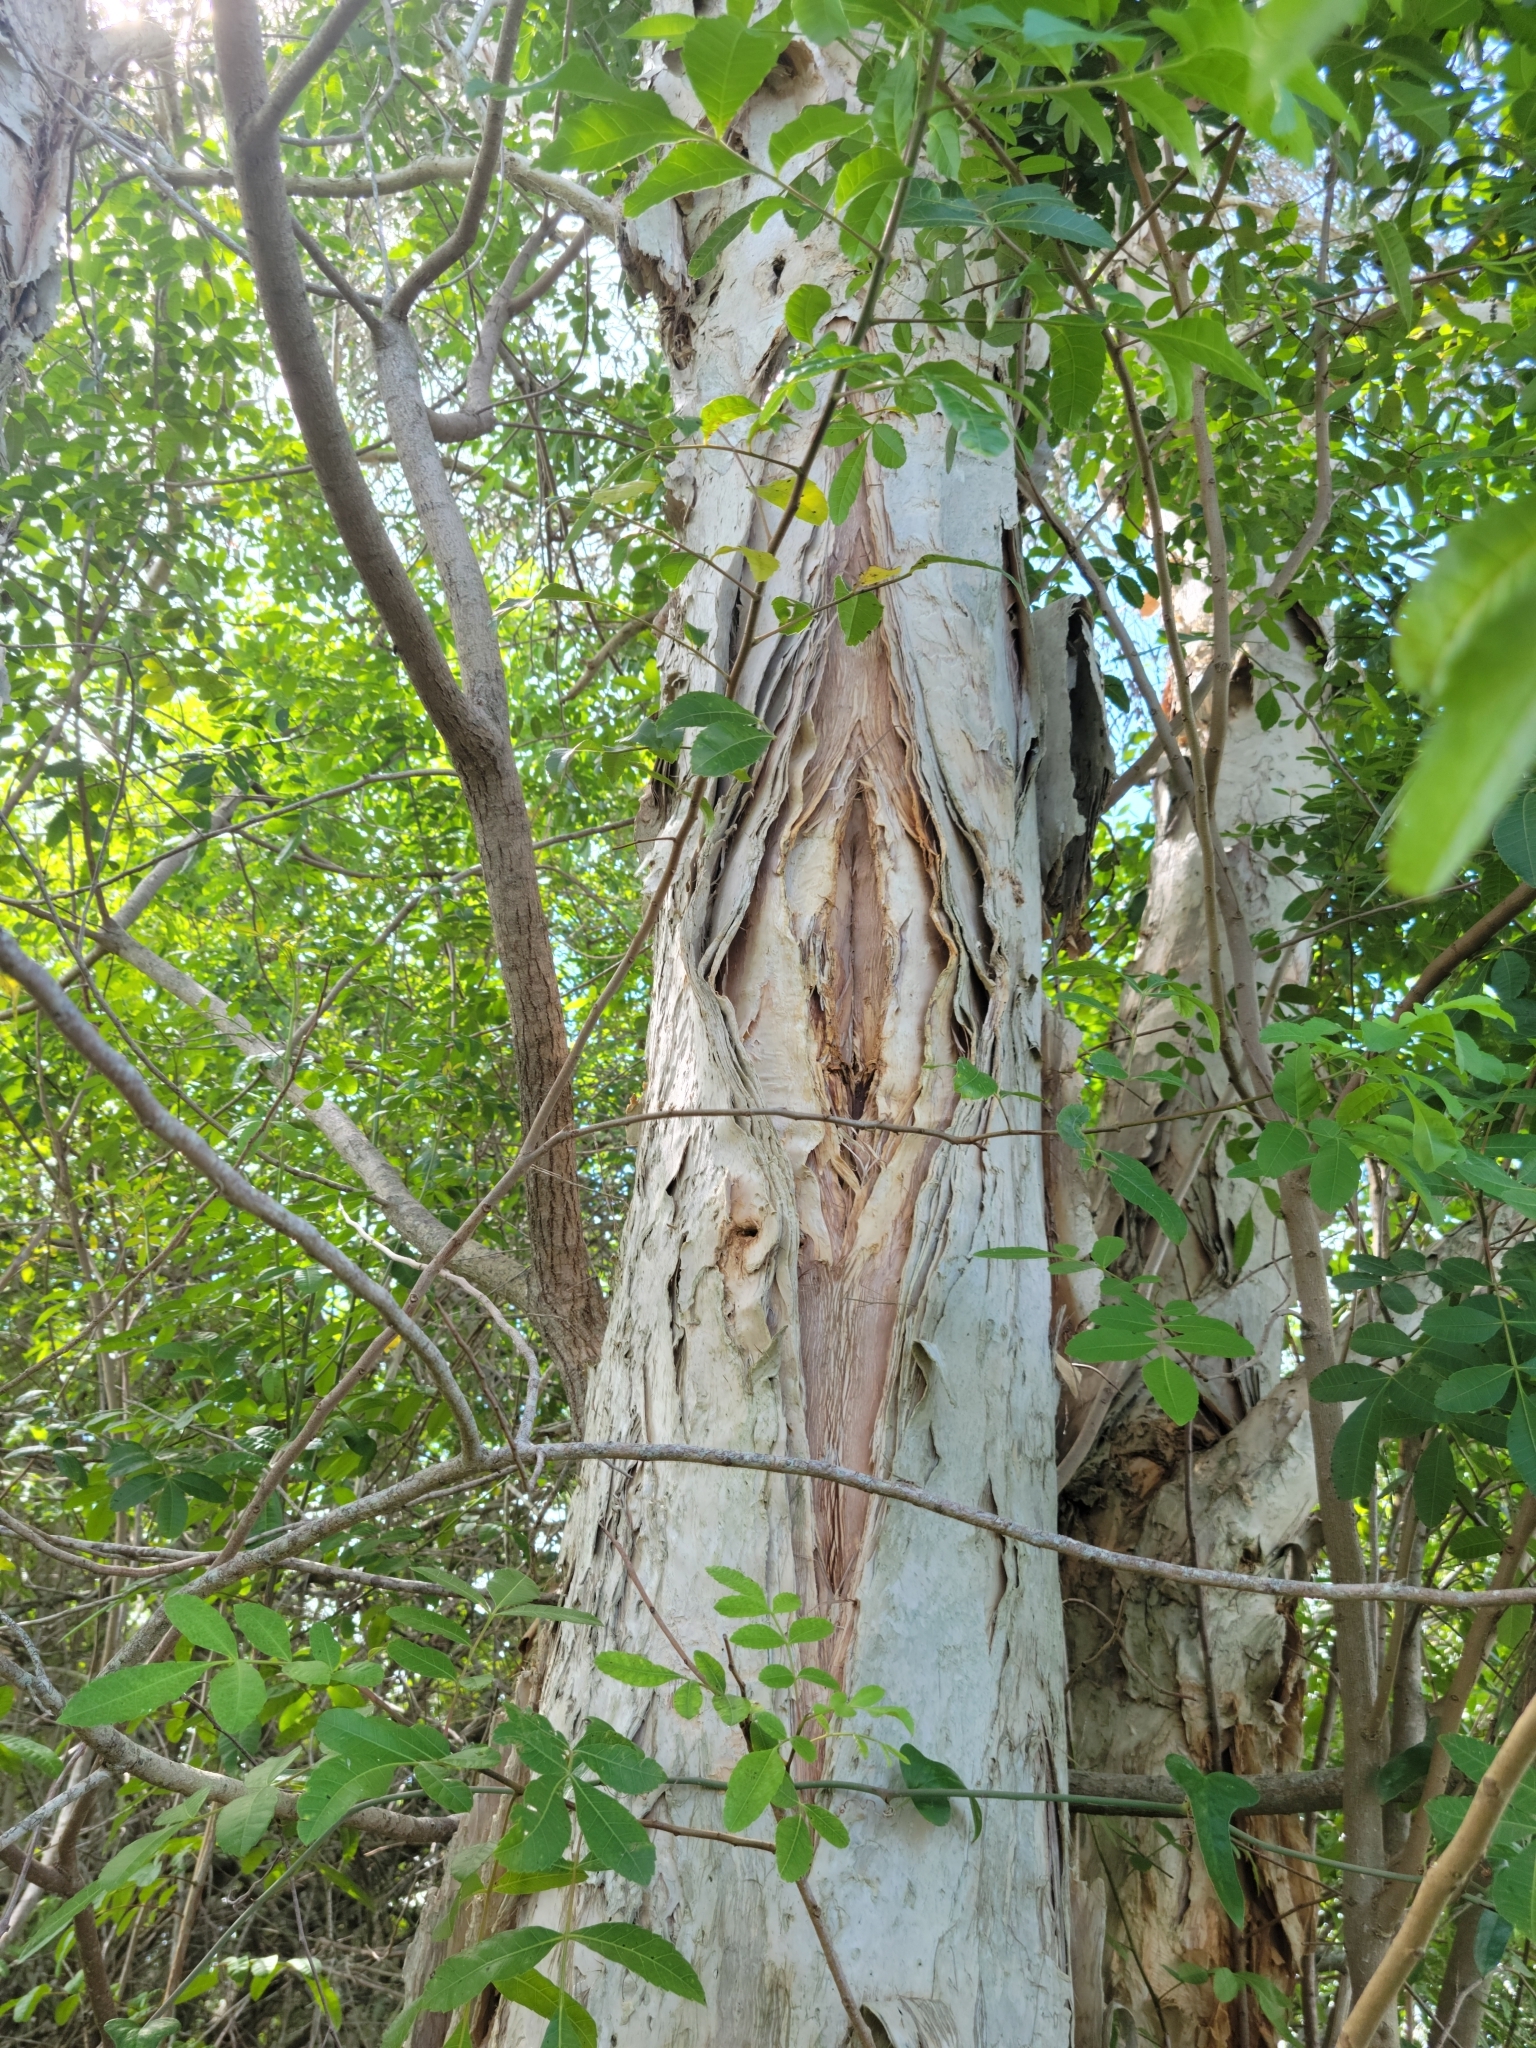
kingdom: Plantae
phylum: Tracheophyta
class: Magnoliopsida
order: Myrtales
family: Myrtaceae
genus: Melaleuca
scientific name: Melaleuca quinquenervia
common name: Punktree
